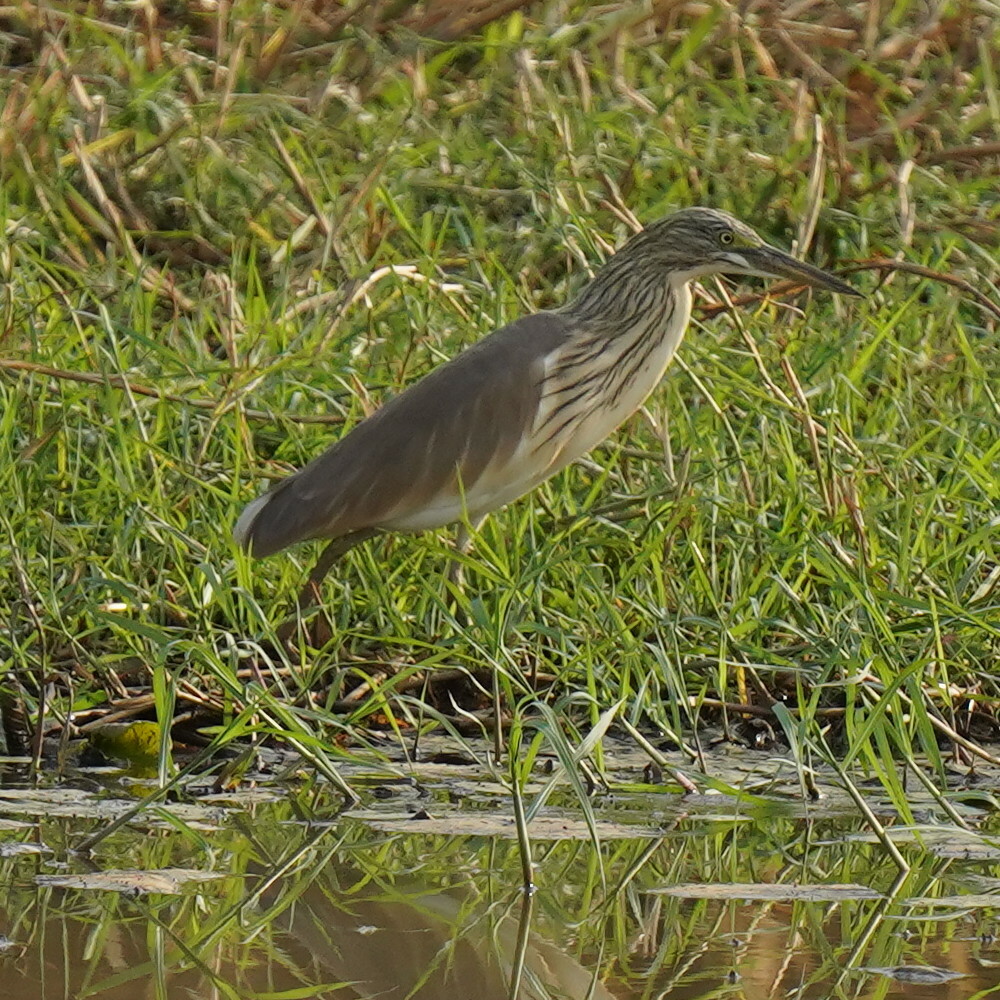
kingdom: Animalia
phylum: Chordata
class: Aves
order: Pelecaniformes
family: Ardeidae
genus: Ardeola
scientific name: Ardeola ralloides
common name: Squacco heron
